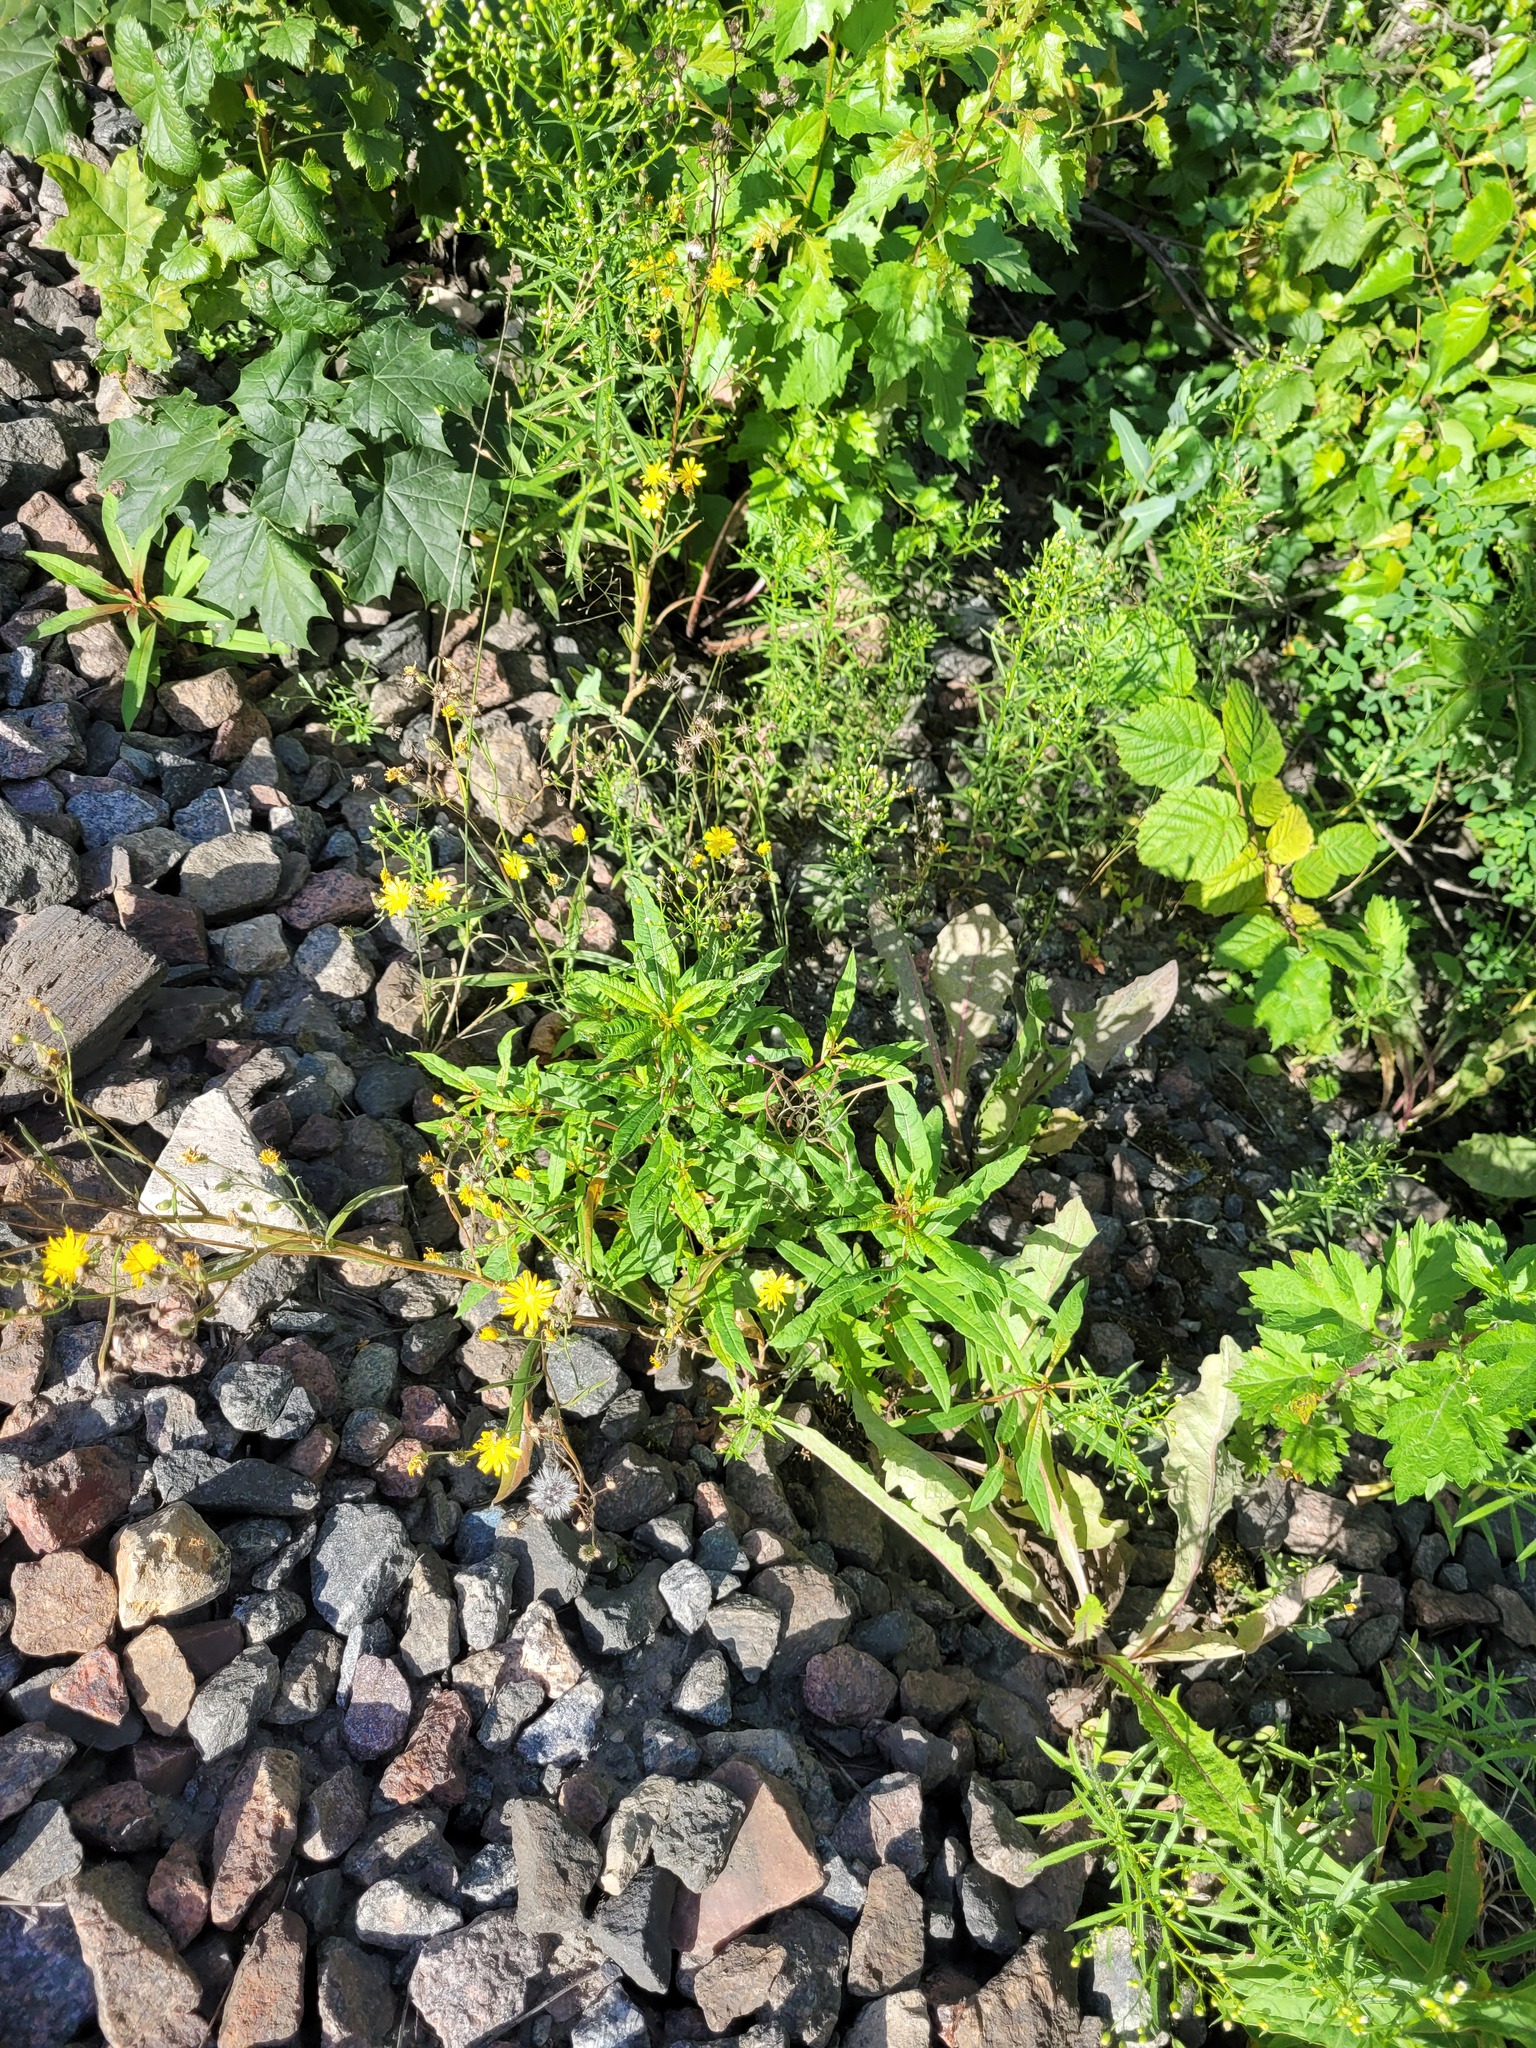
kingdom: Plantae
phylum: Tracheophyta
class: Magnoliopsida
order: Asterales
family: Asteraceae
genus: Crepis
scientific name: Crepis tectorum
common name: Narrow-leaved hawk's-beard
